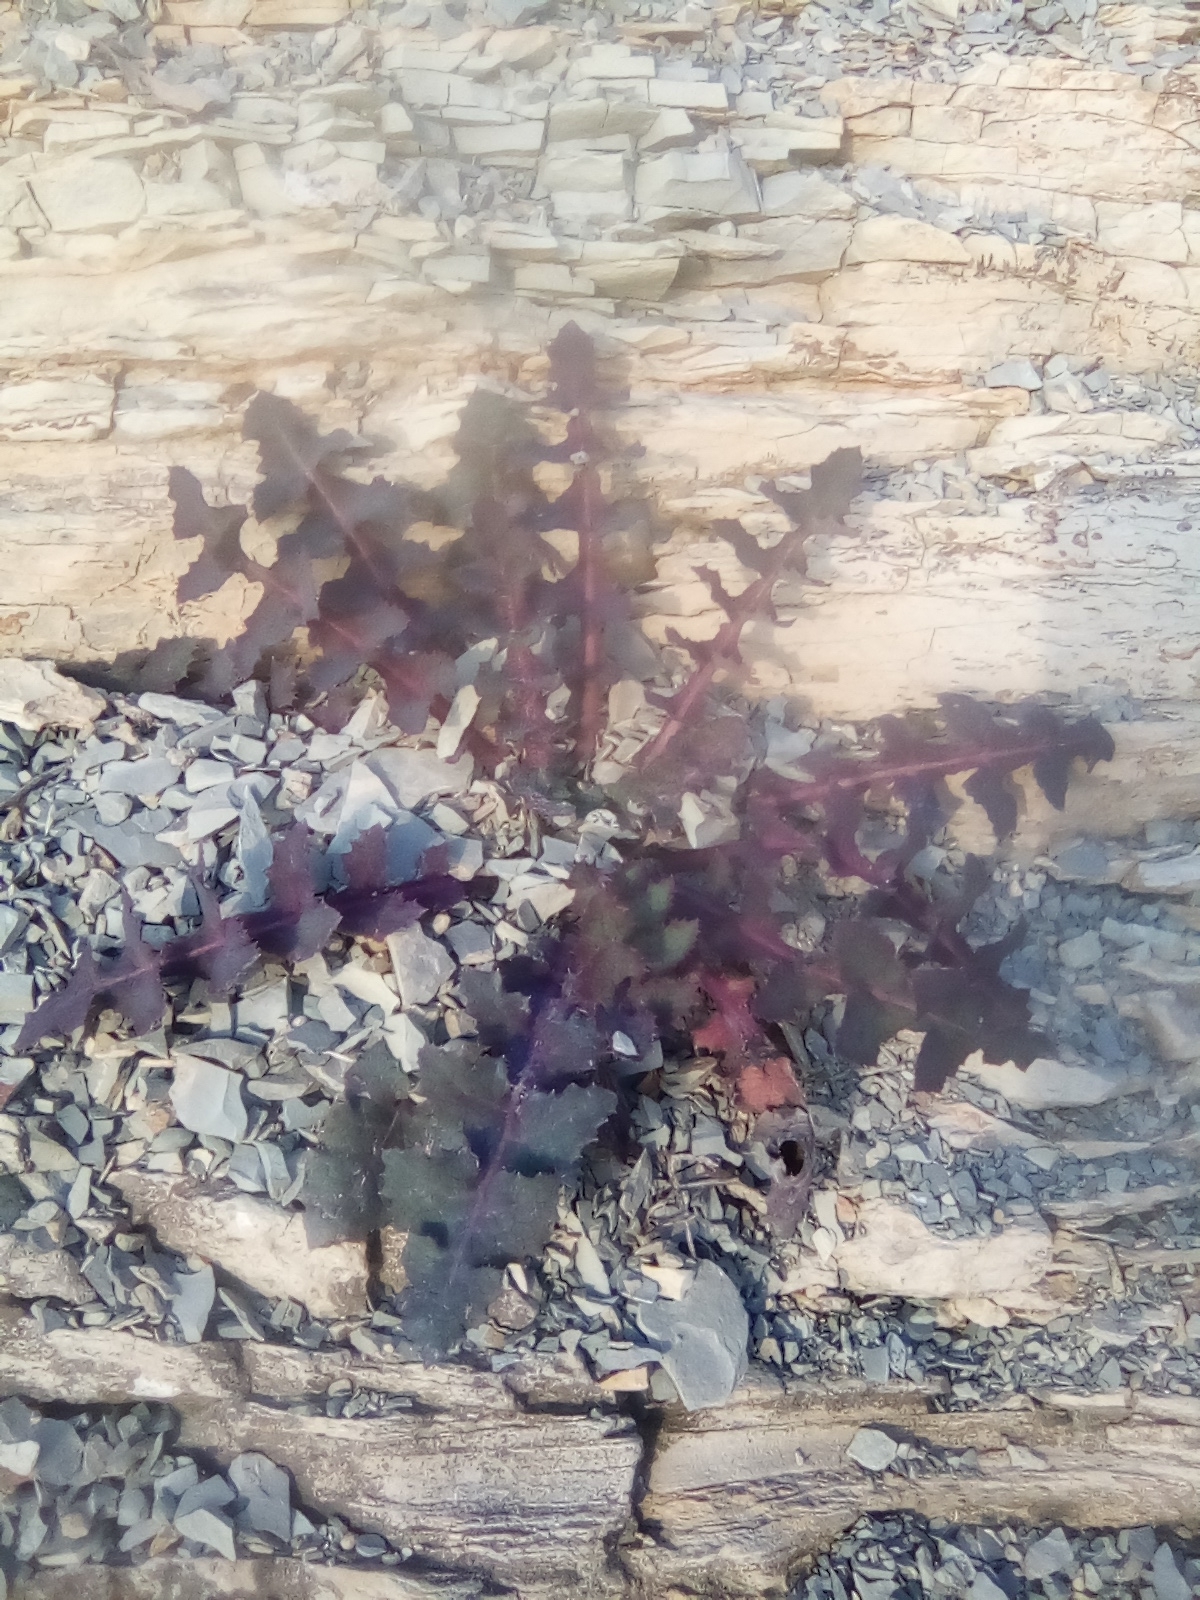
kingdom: Plantae
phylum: Tracheophyta
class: Magnoliopsida
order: Asterales
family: Asteraceae
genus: Sonchus
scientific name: Sonchus oleraceus
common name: Common sowthistle
